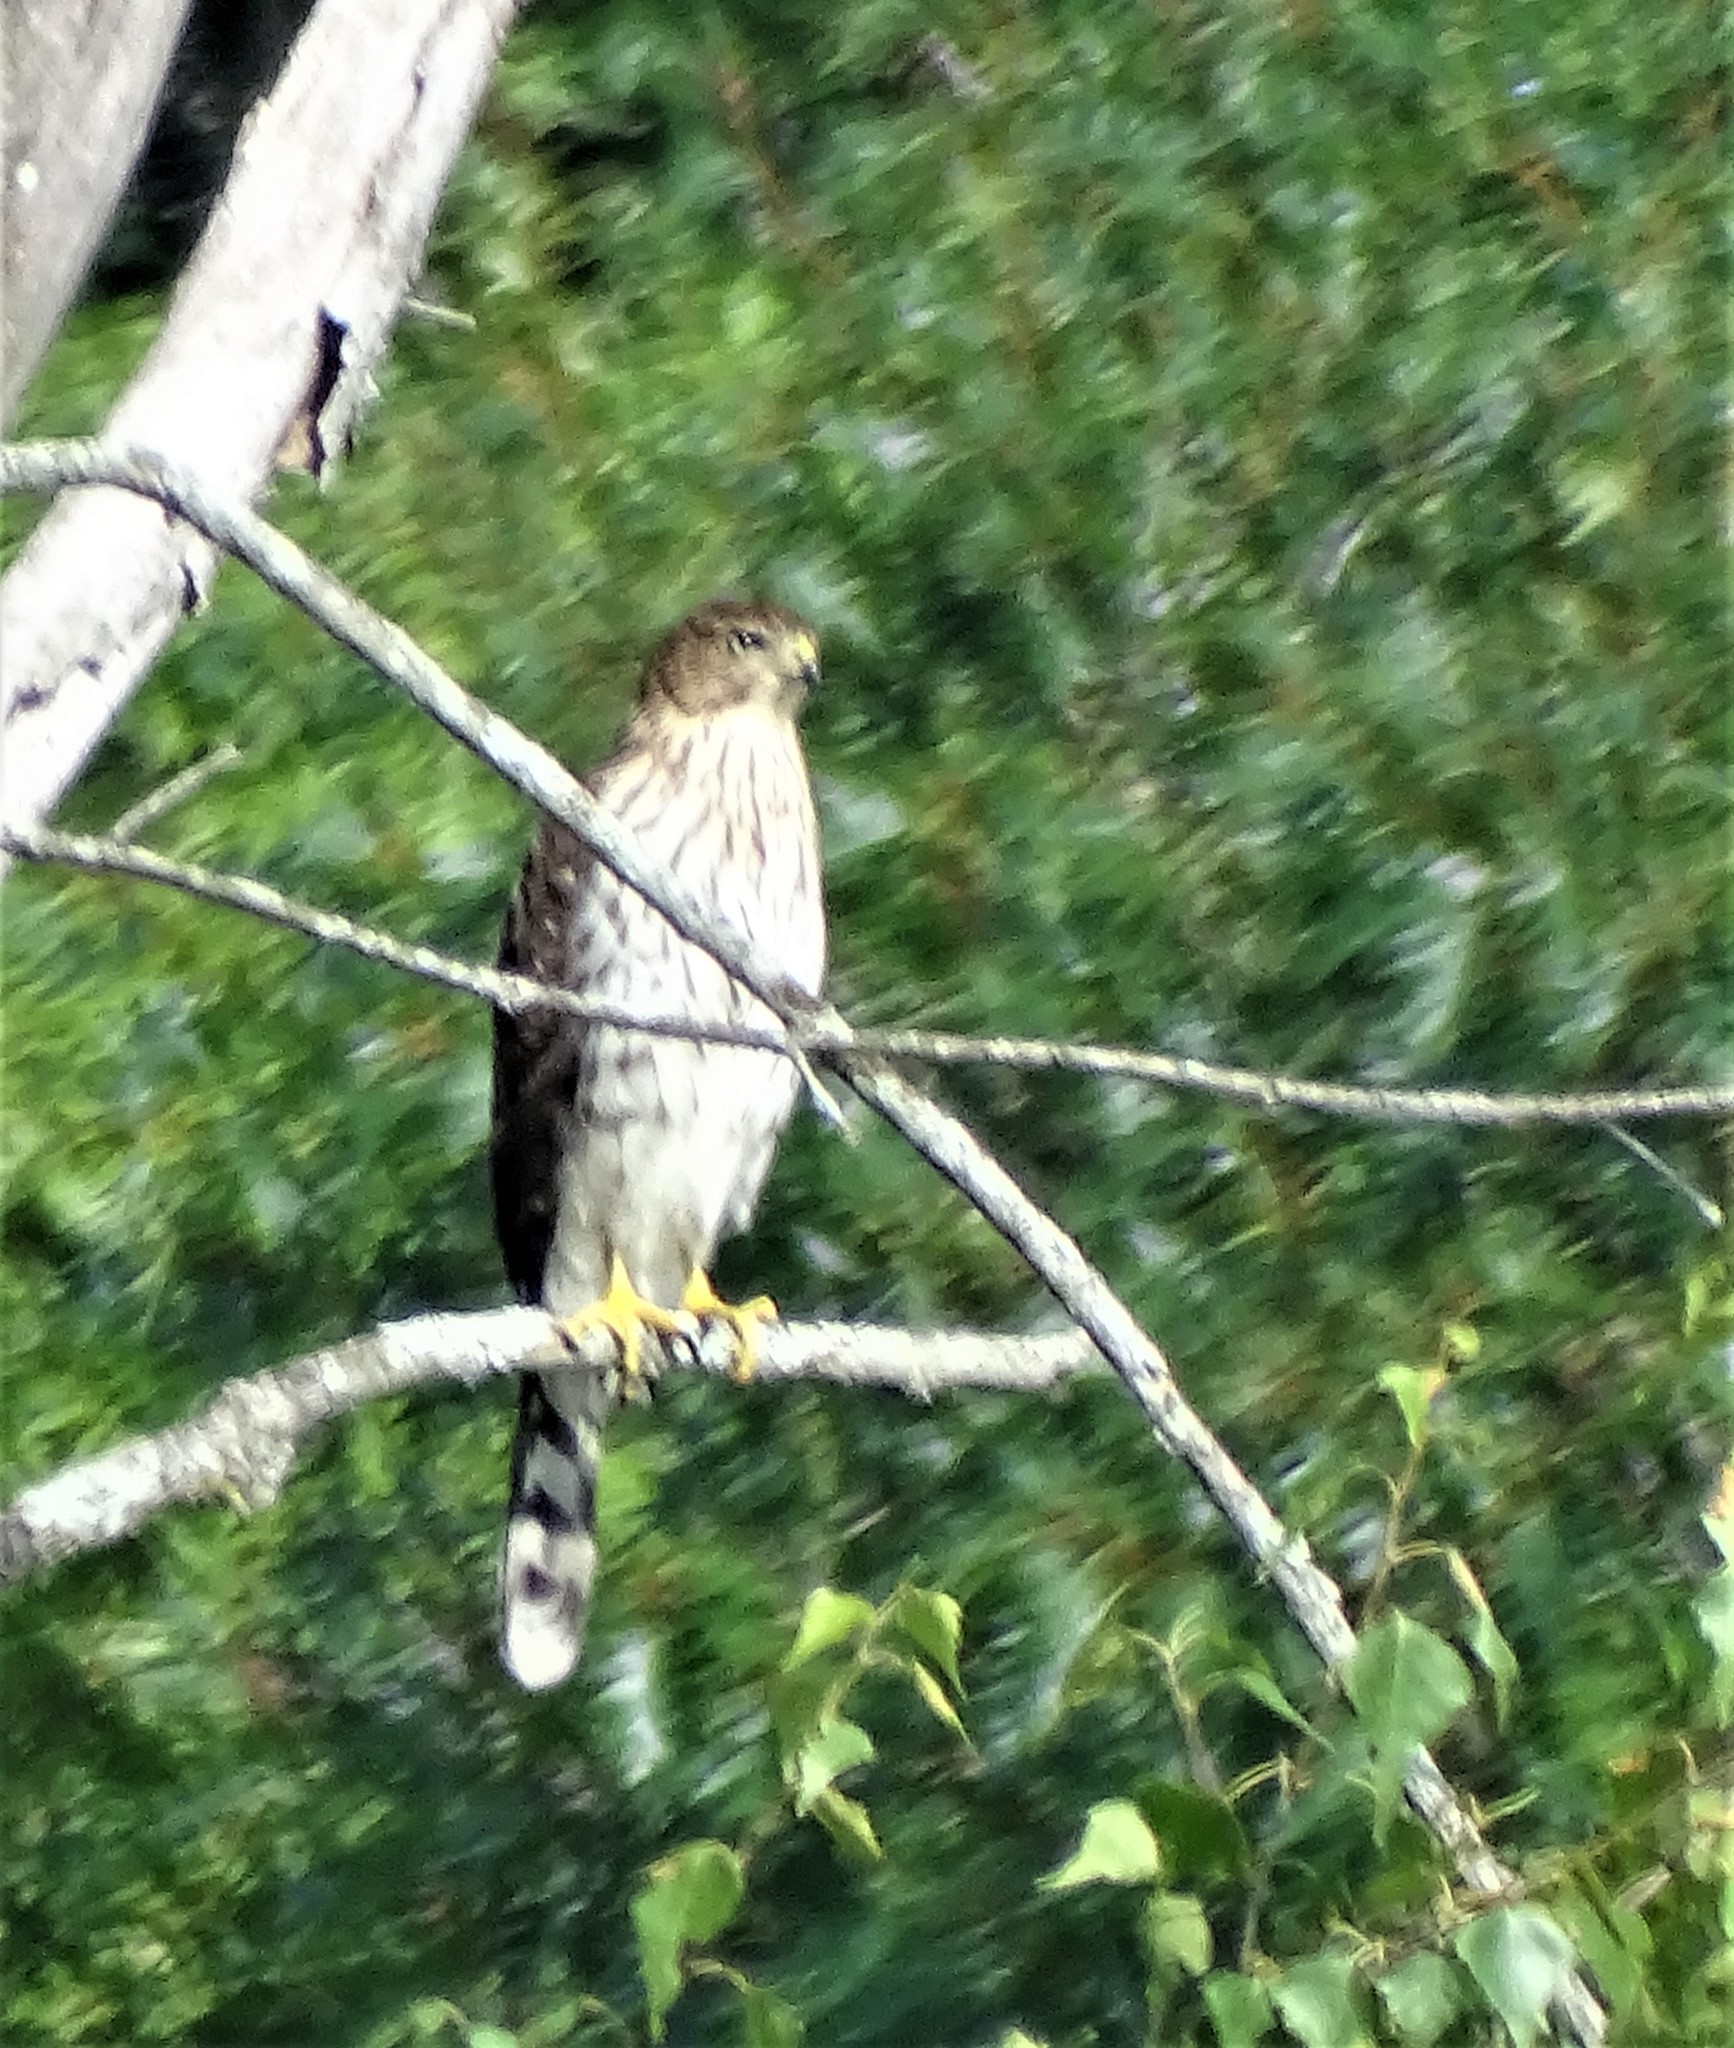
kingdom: Animalia
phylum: Chordata
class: Aves
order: Accipitriformes
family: Accipitridae
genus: Accipiter
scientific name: Accipiter cooperii
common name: Cooper's hawk
